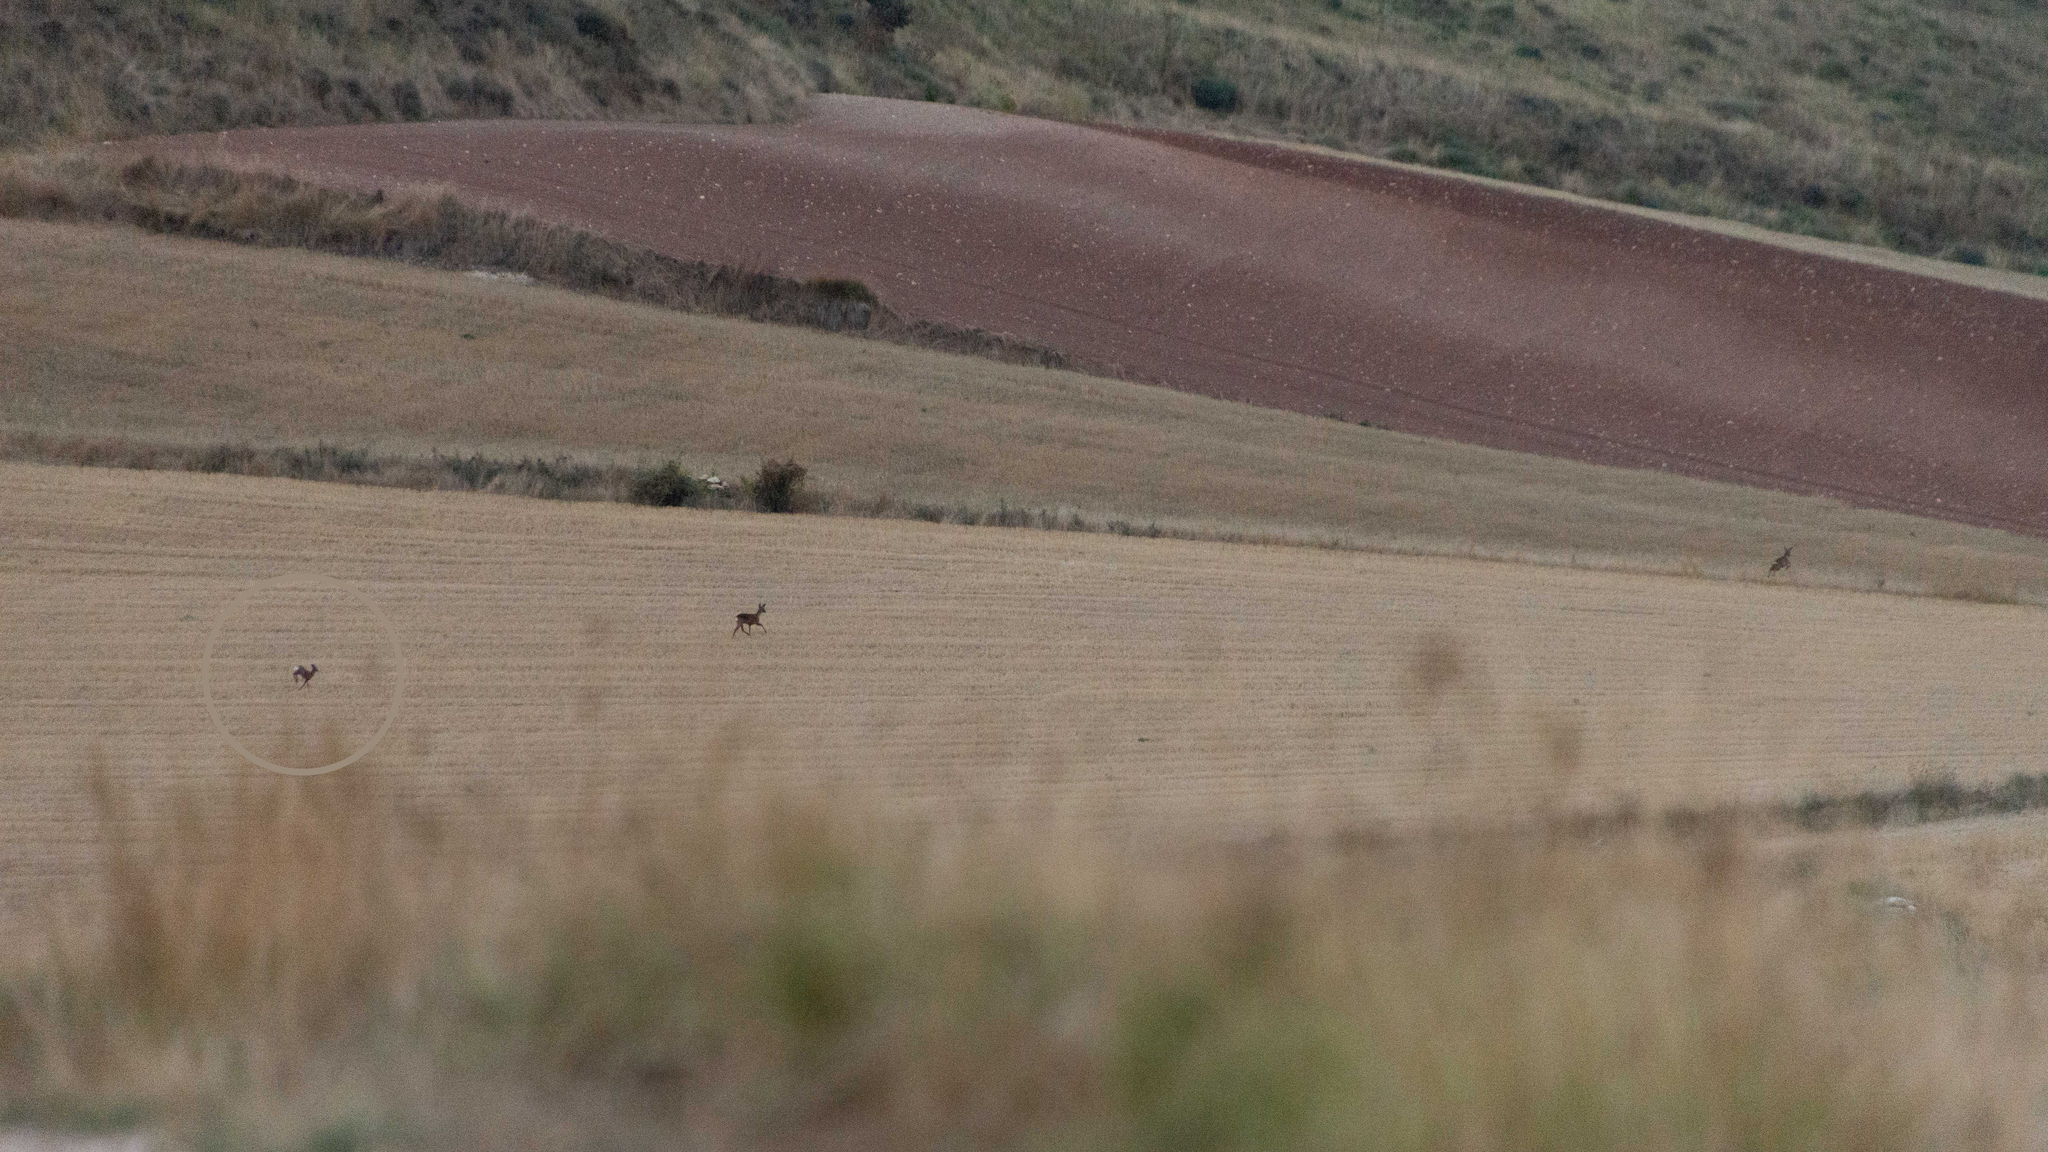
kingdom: Animalia
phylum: Chordata
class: Mammalia
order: Artiodactyla
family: Cervidae
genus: Capreolus
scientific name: Capreolus capreolus
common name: Western roe deer
